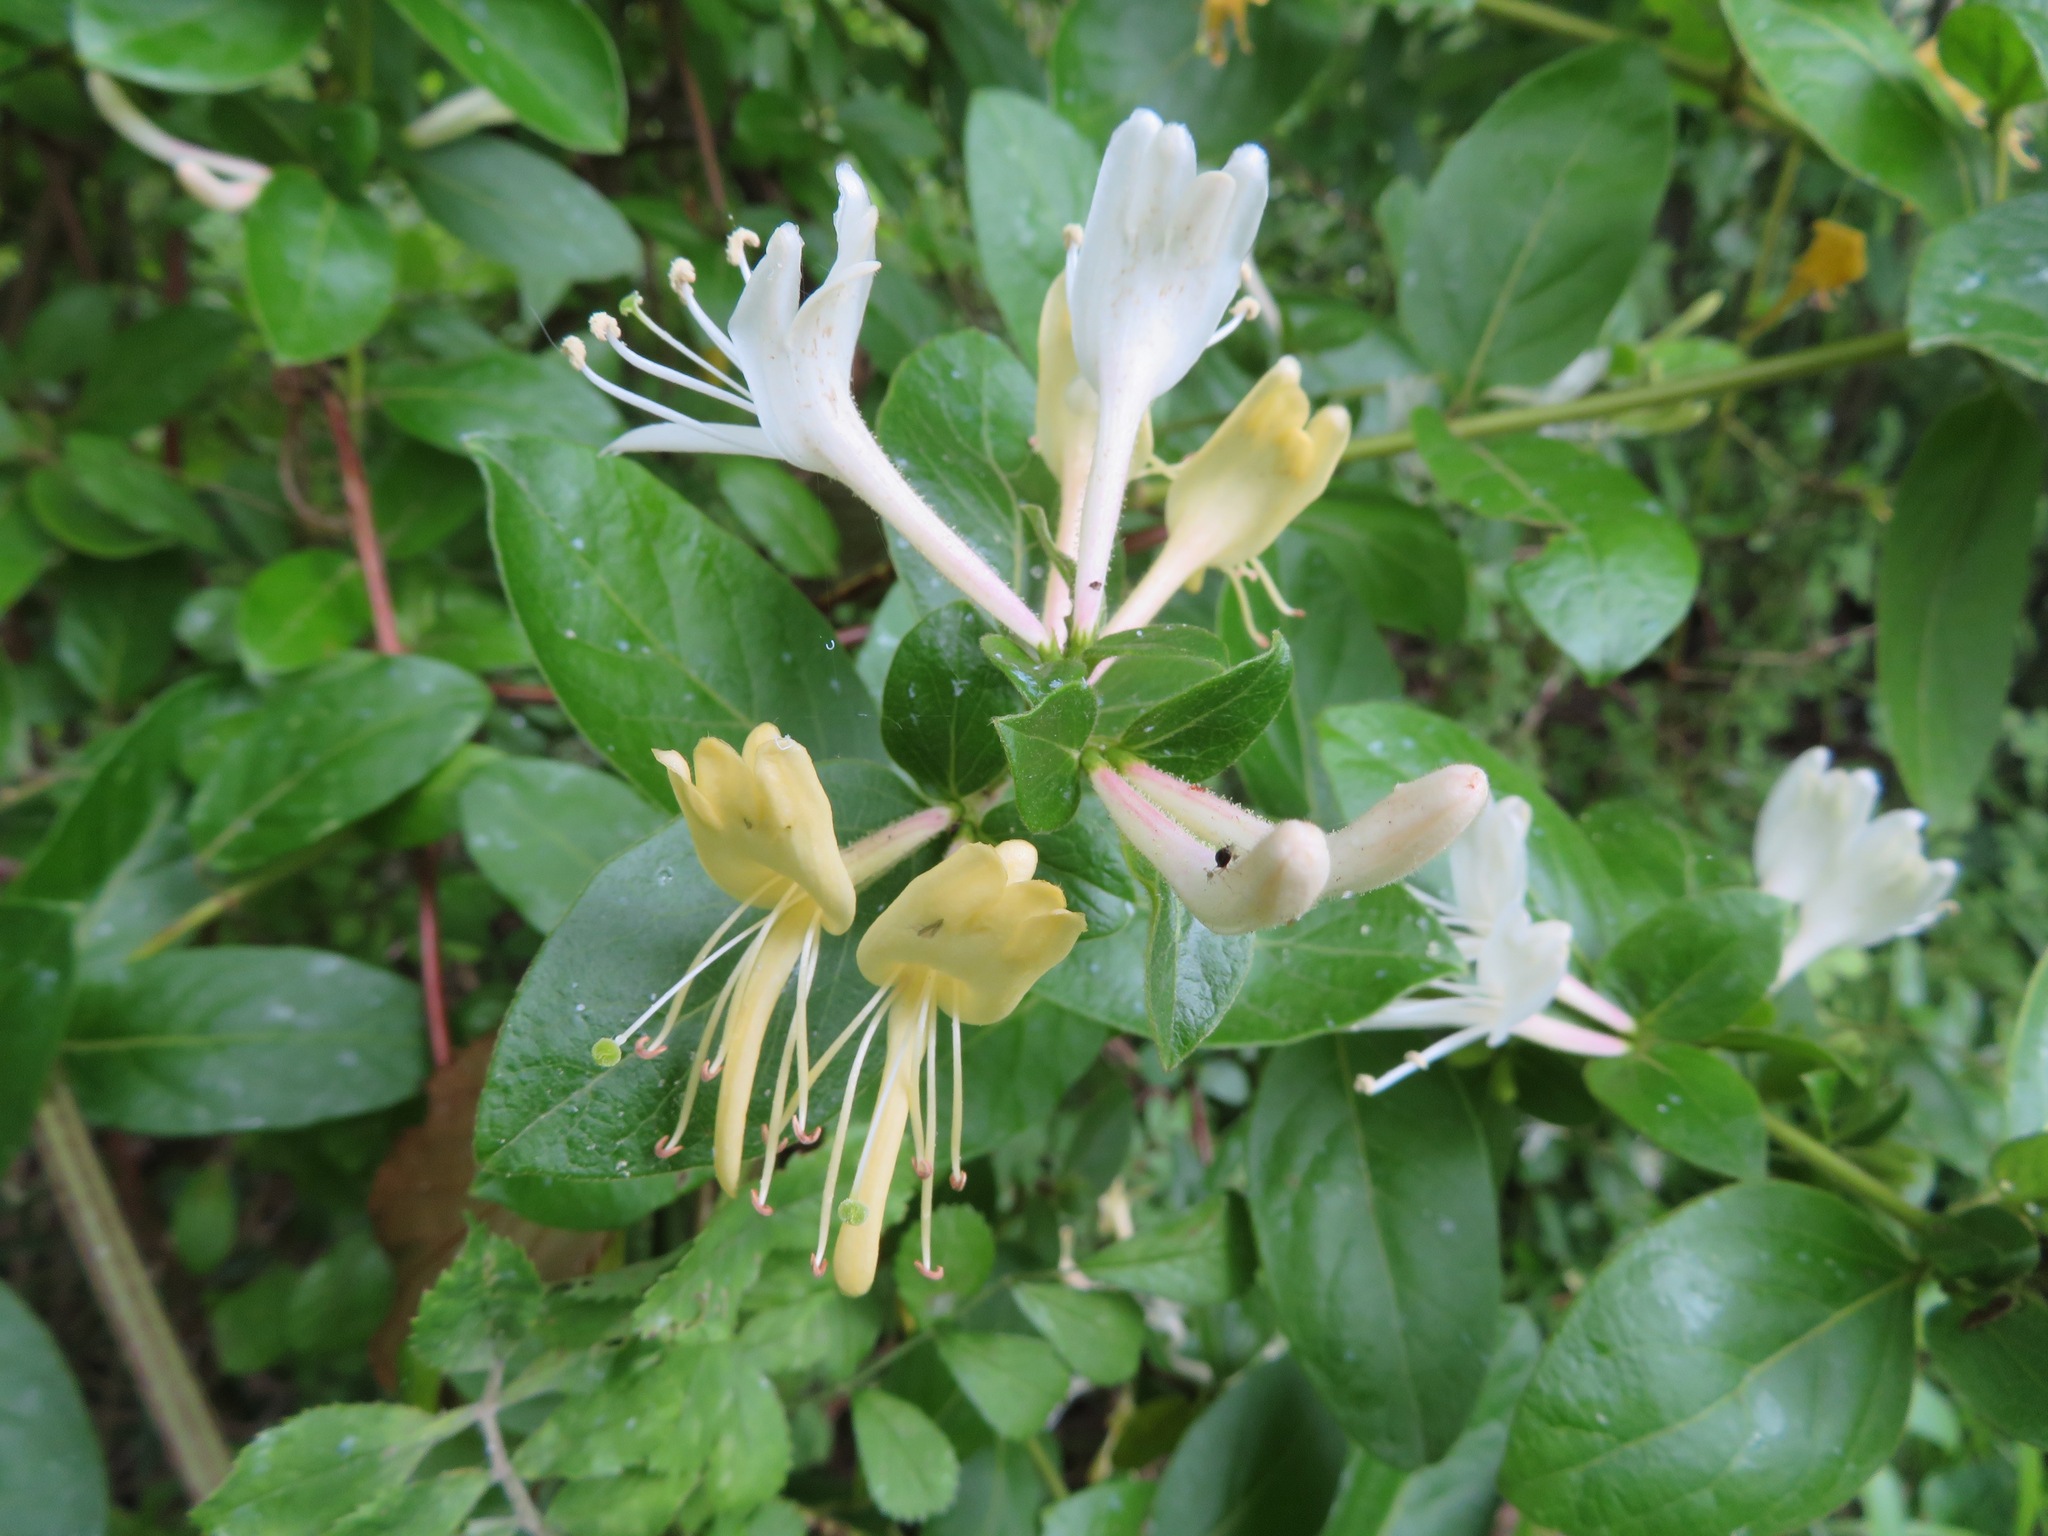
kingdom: Plantae
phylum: Tracheophyta
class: Magnoliopsida
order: Dipsacales
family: Caprifoliaceae
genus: Lonicera
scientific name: Lonicera japonica
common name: Japanese honeysuckle
